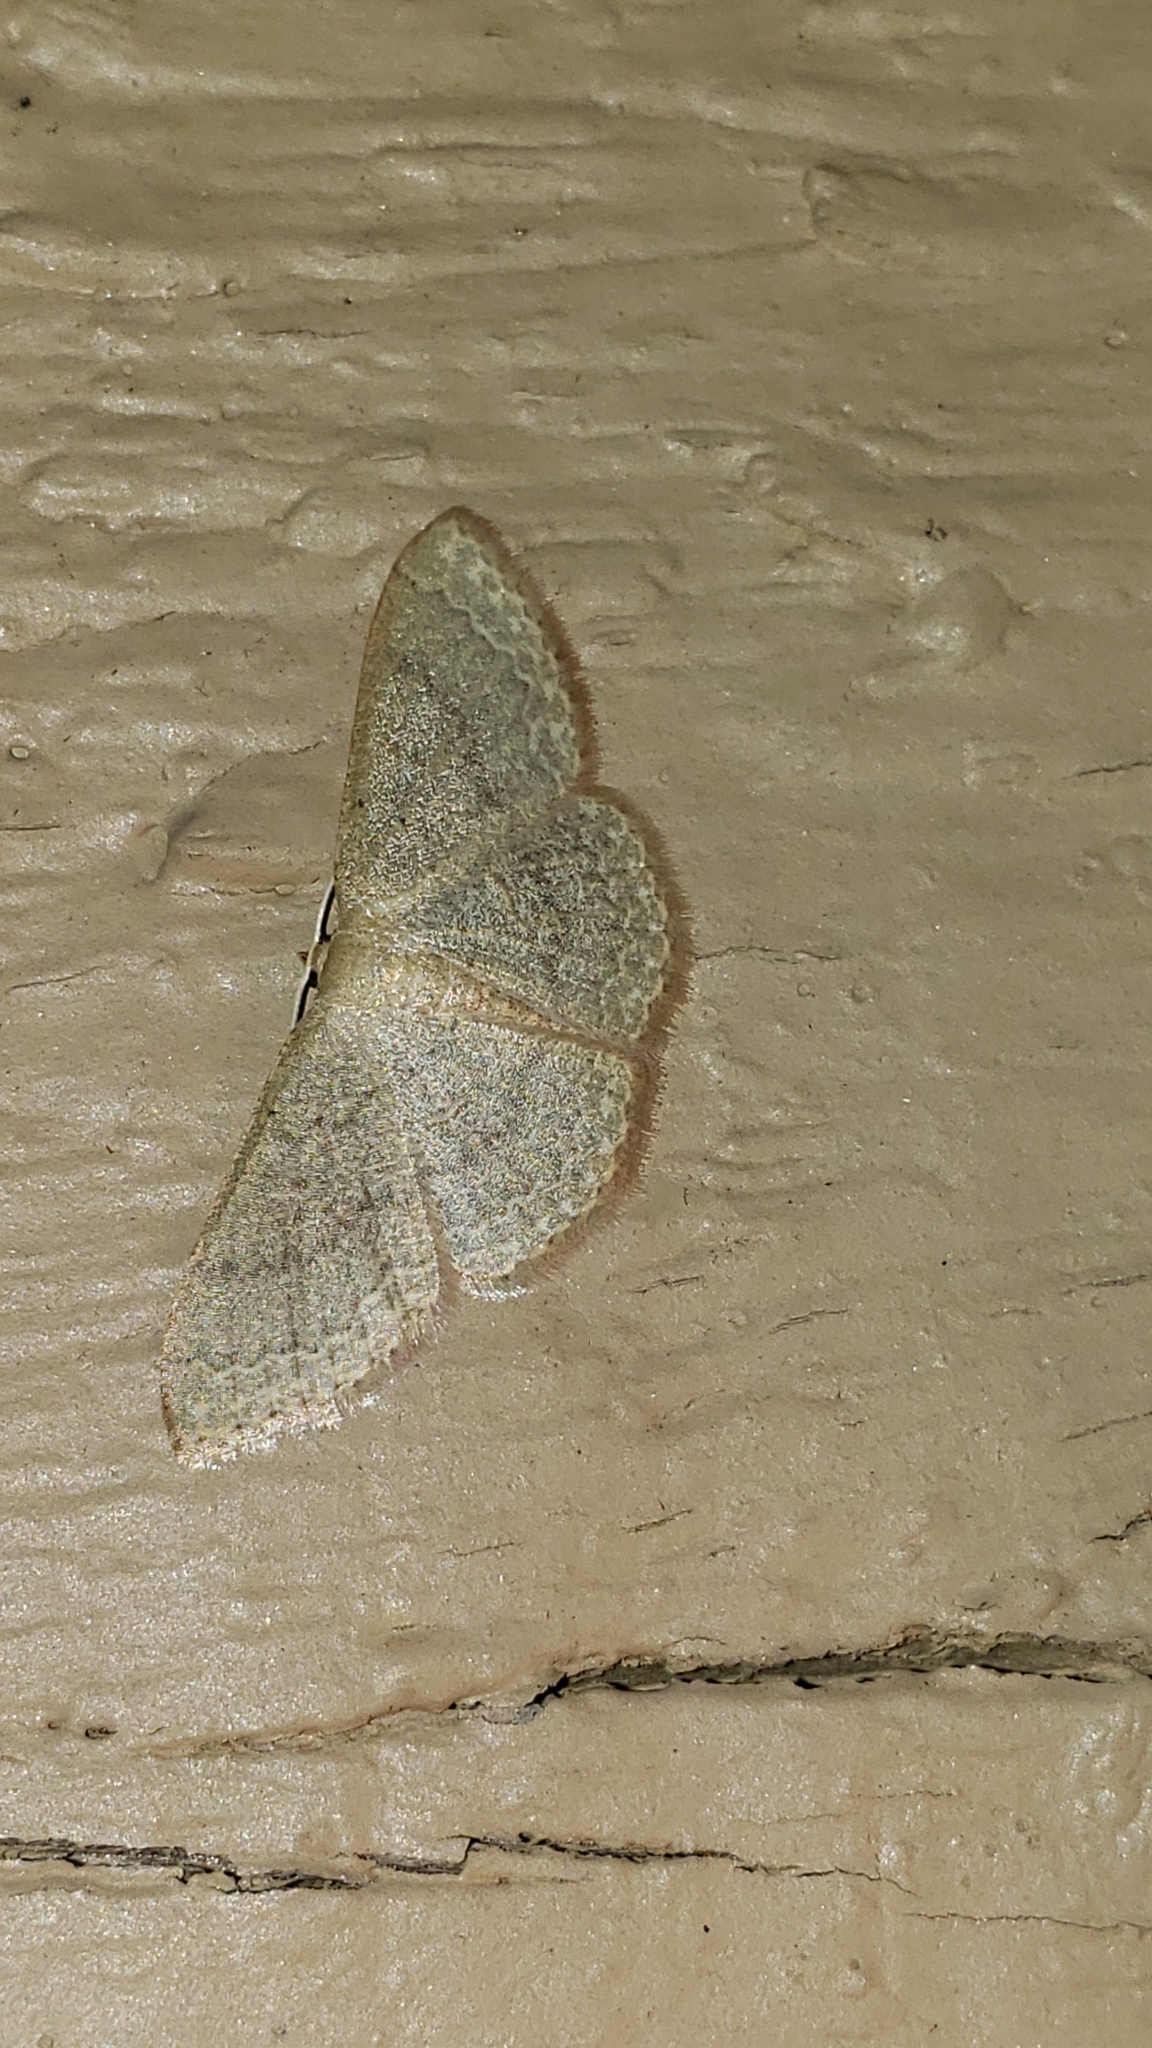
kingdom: Animalia
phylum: Arthropoda
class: Insecta
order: Lepidoptera
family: Geometridae
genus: Pleuroprucha
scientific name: Pleuroprucha insulsaria
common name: Common tan wave
